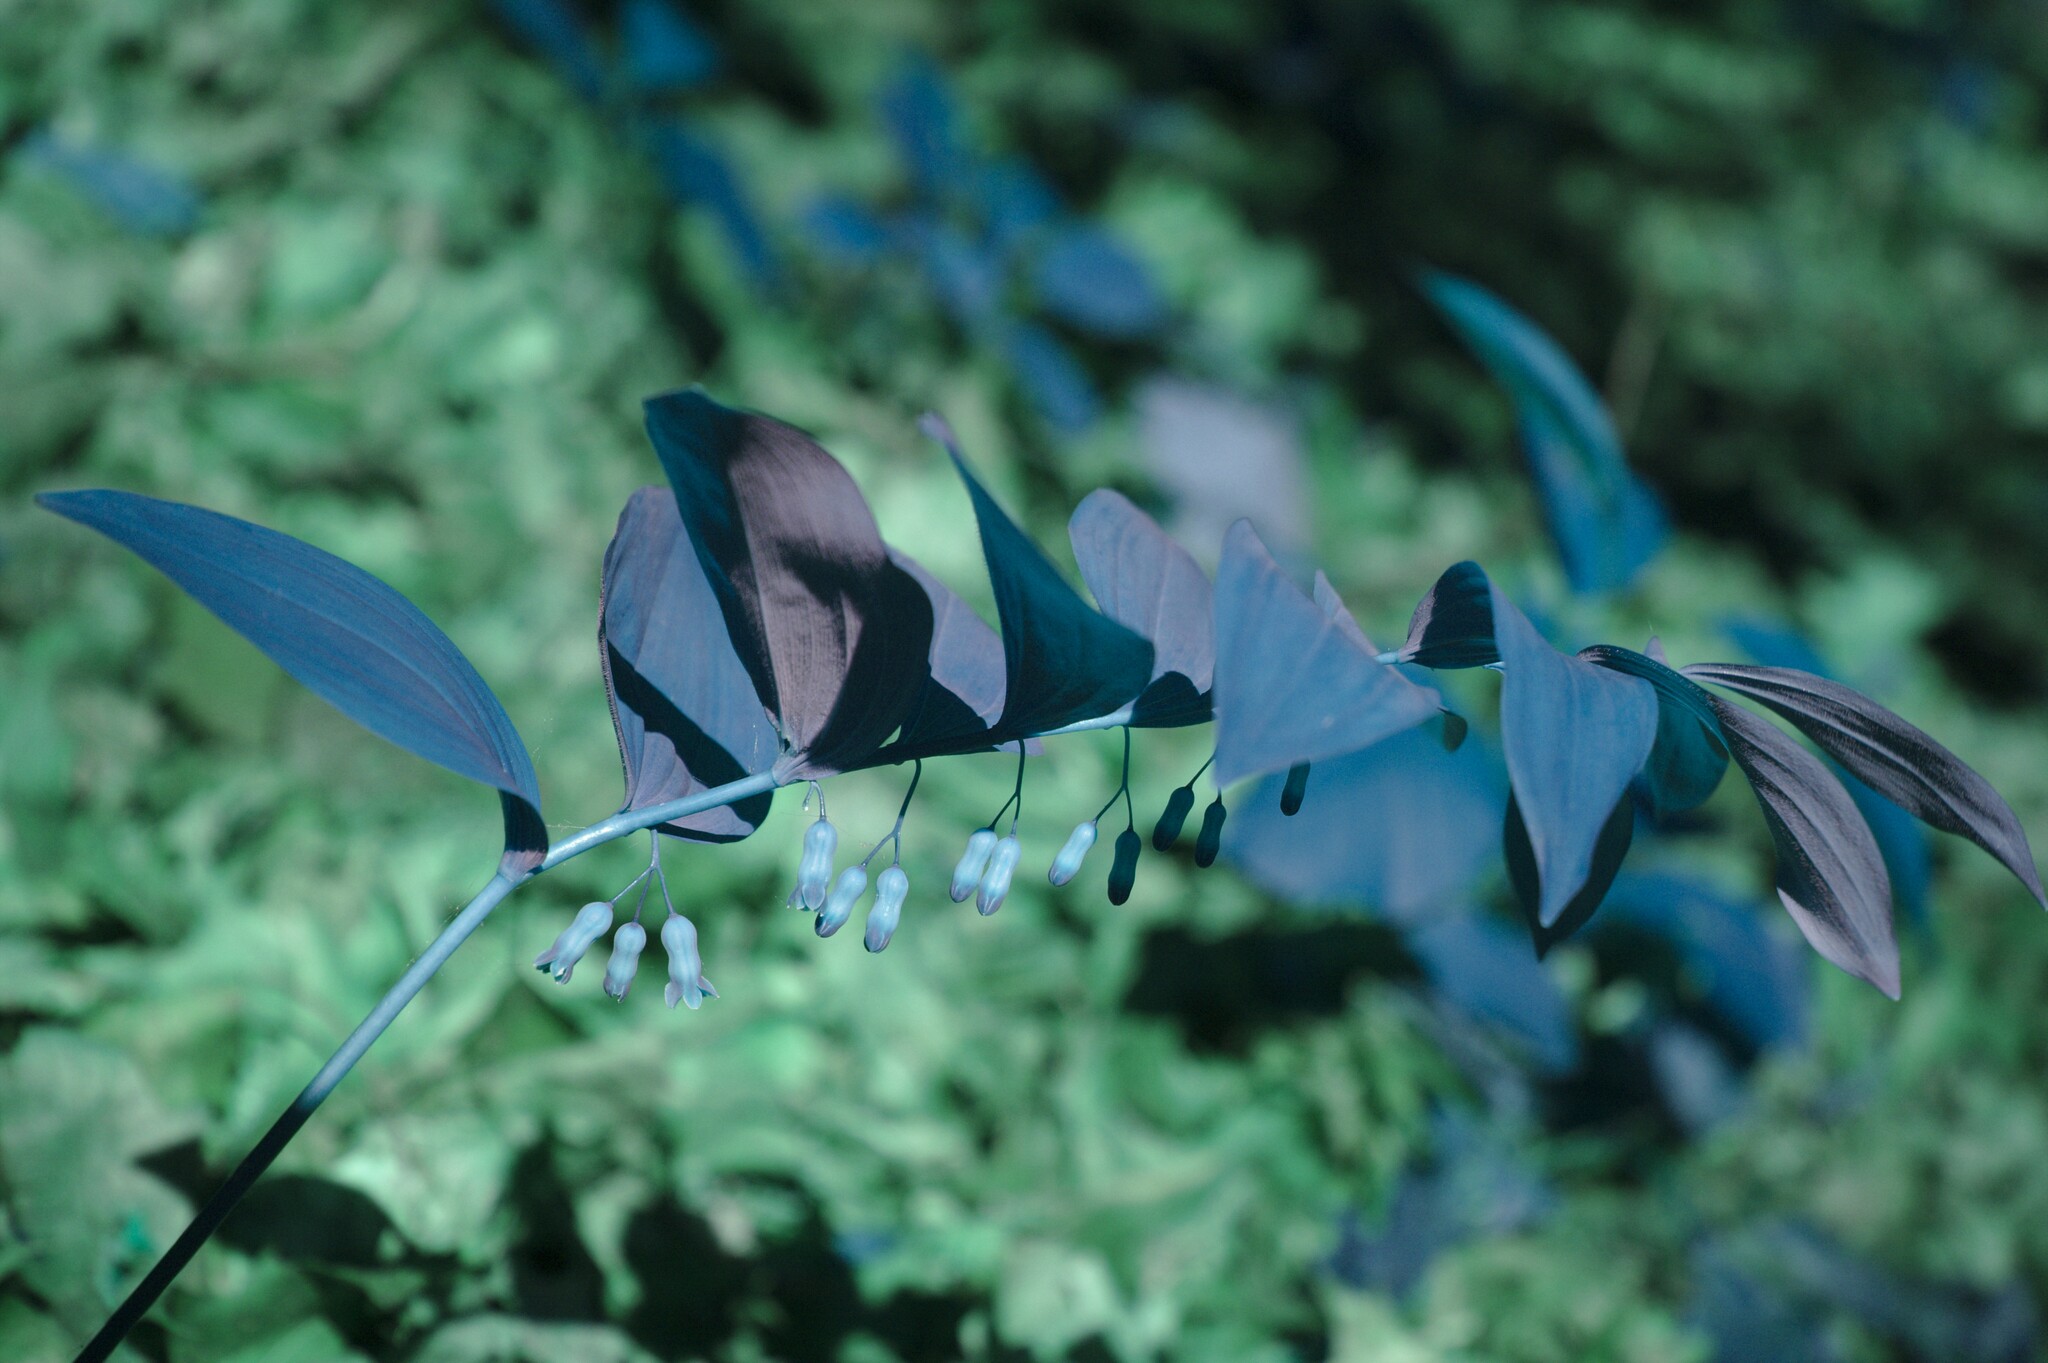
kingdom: Plantae
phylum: Tracheophyta
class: Liliopsida
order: Asparagales
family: Asparagaceae
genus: Polygonatum
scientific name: Polygonatum pubescens
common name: Downy solomon's seal
